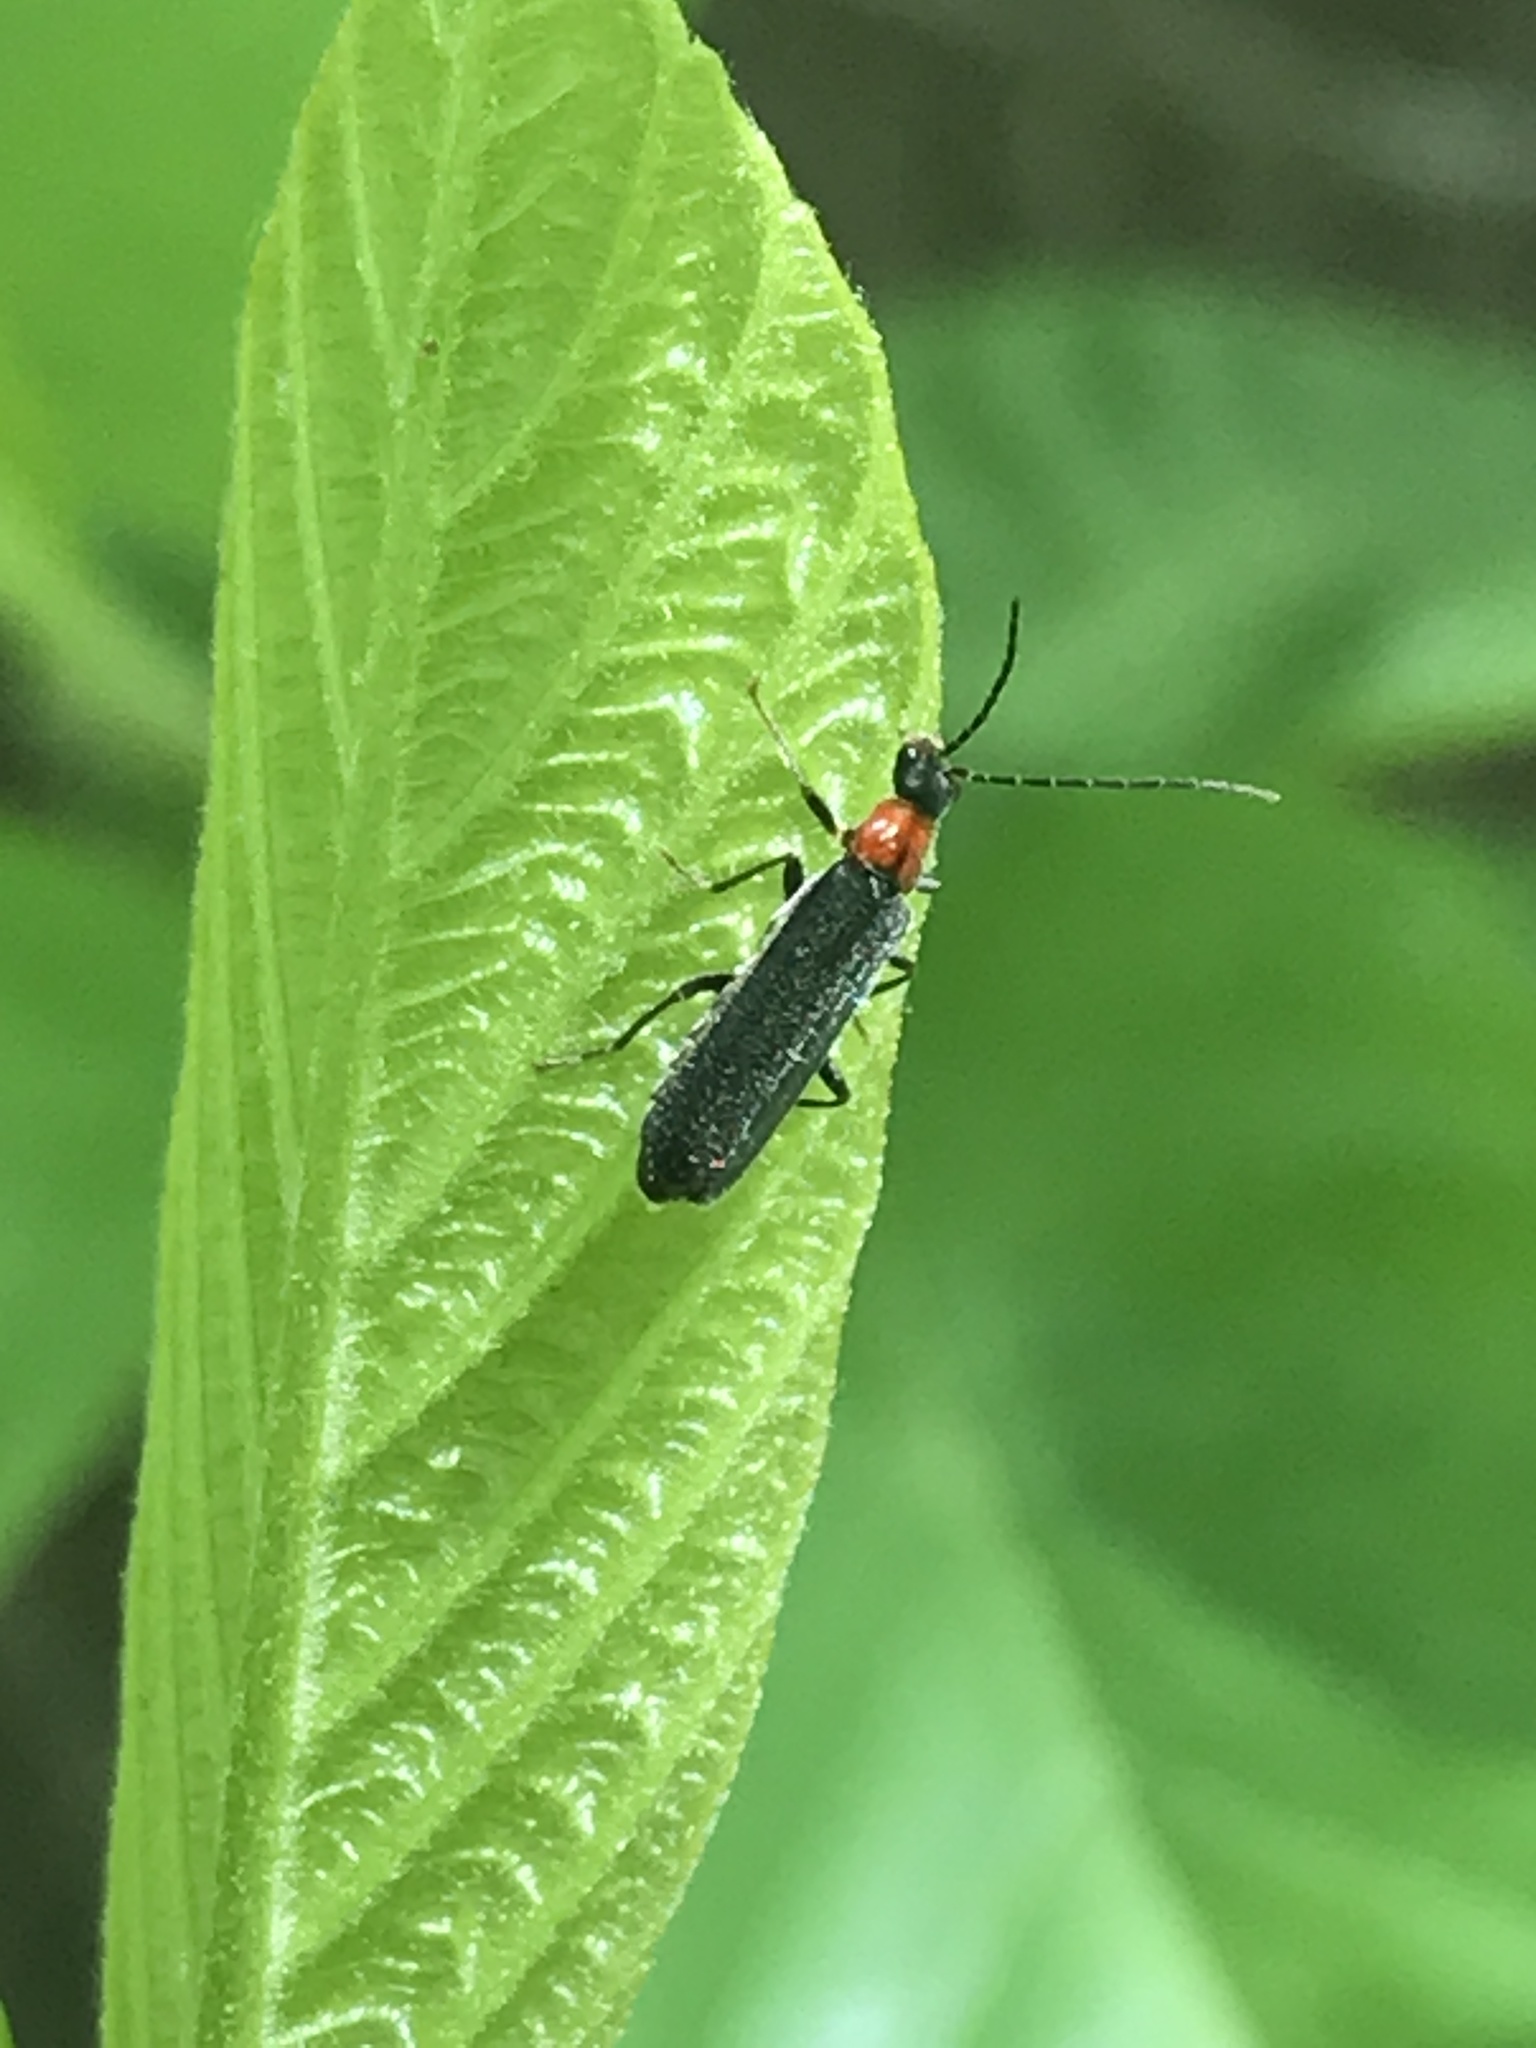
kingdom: Animalia
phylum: Arthropoda
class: Insecta
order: Coleoptera
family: Cantharidae
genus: Rhagonycha
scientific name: Rhagonycha excavata
